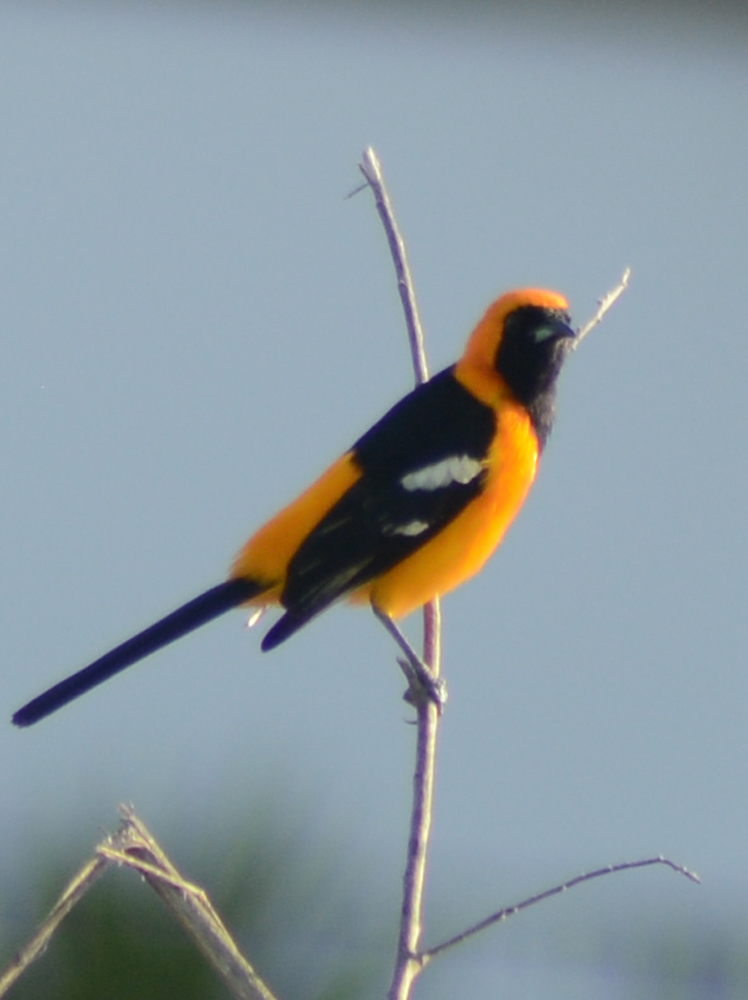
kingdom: Animalia
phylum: Chordata
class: Aves
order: Passeriformes
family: Icteridae
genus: Icterus
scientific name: Icterus cucullatus
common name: Hooded oriole
